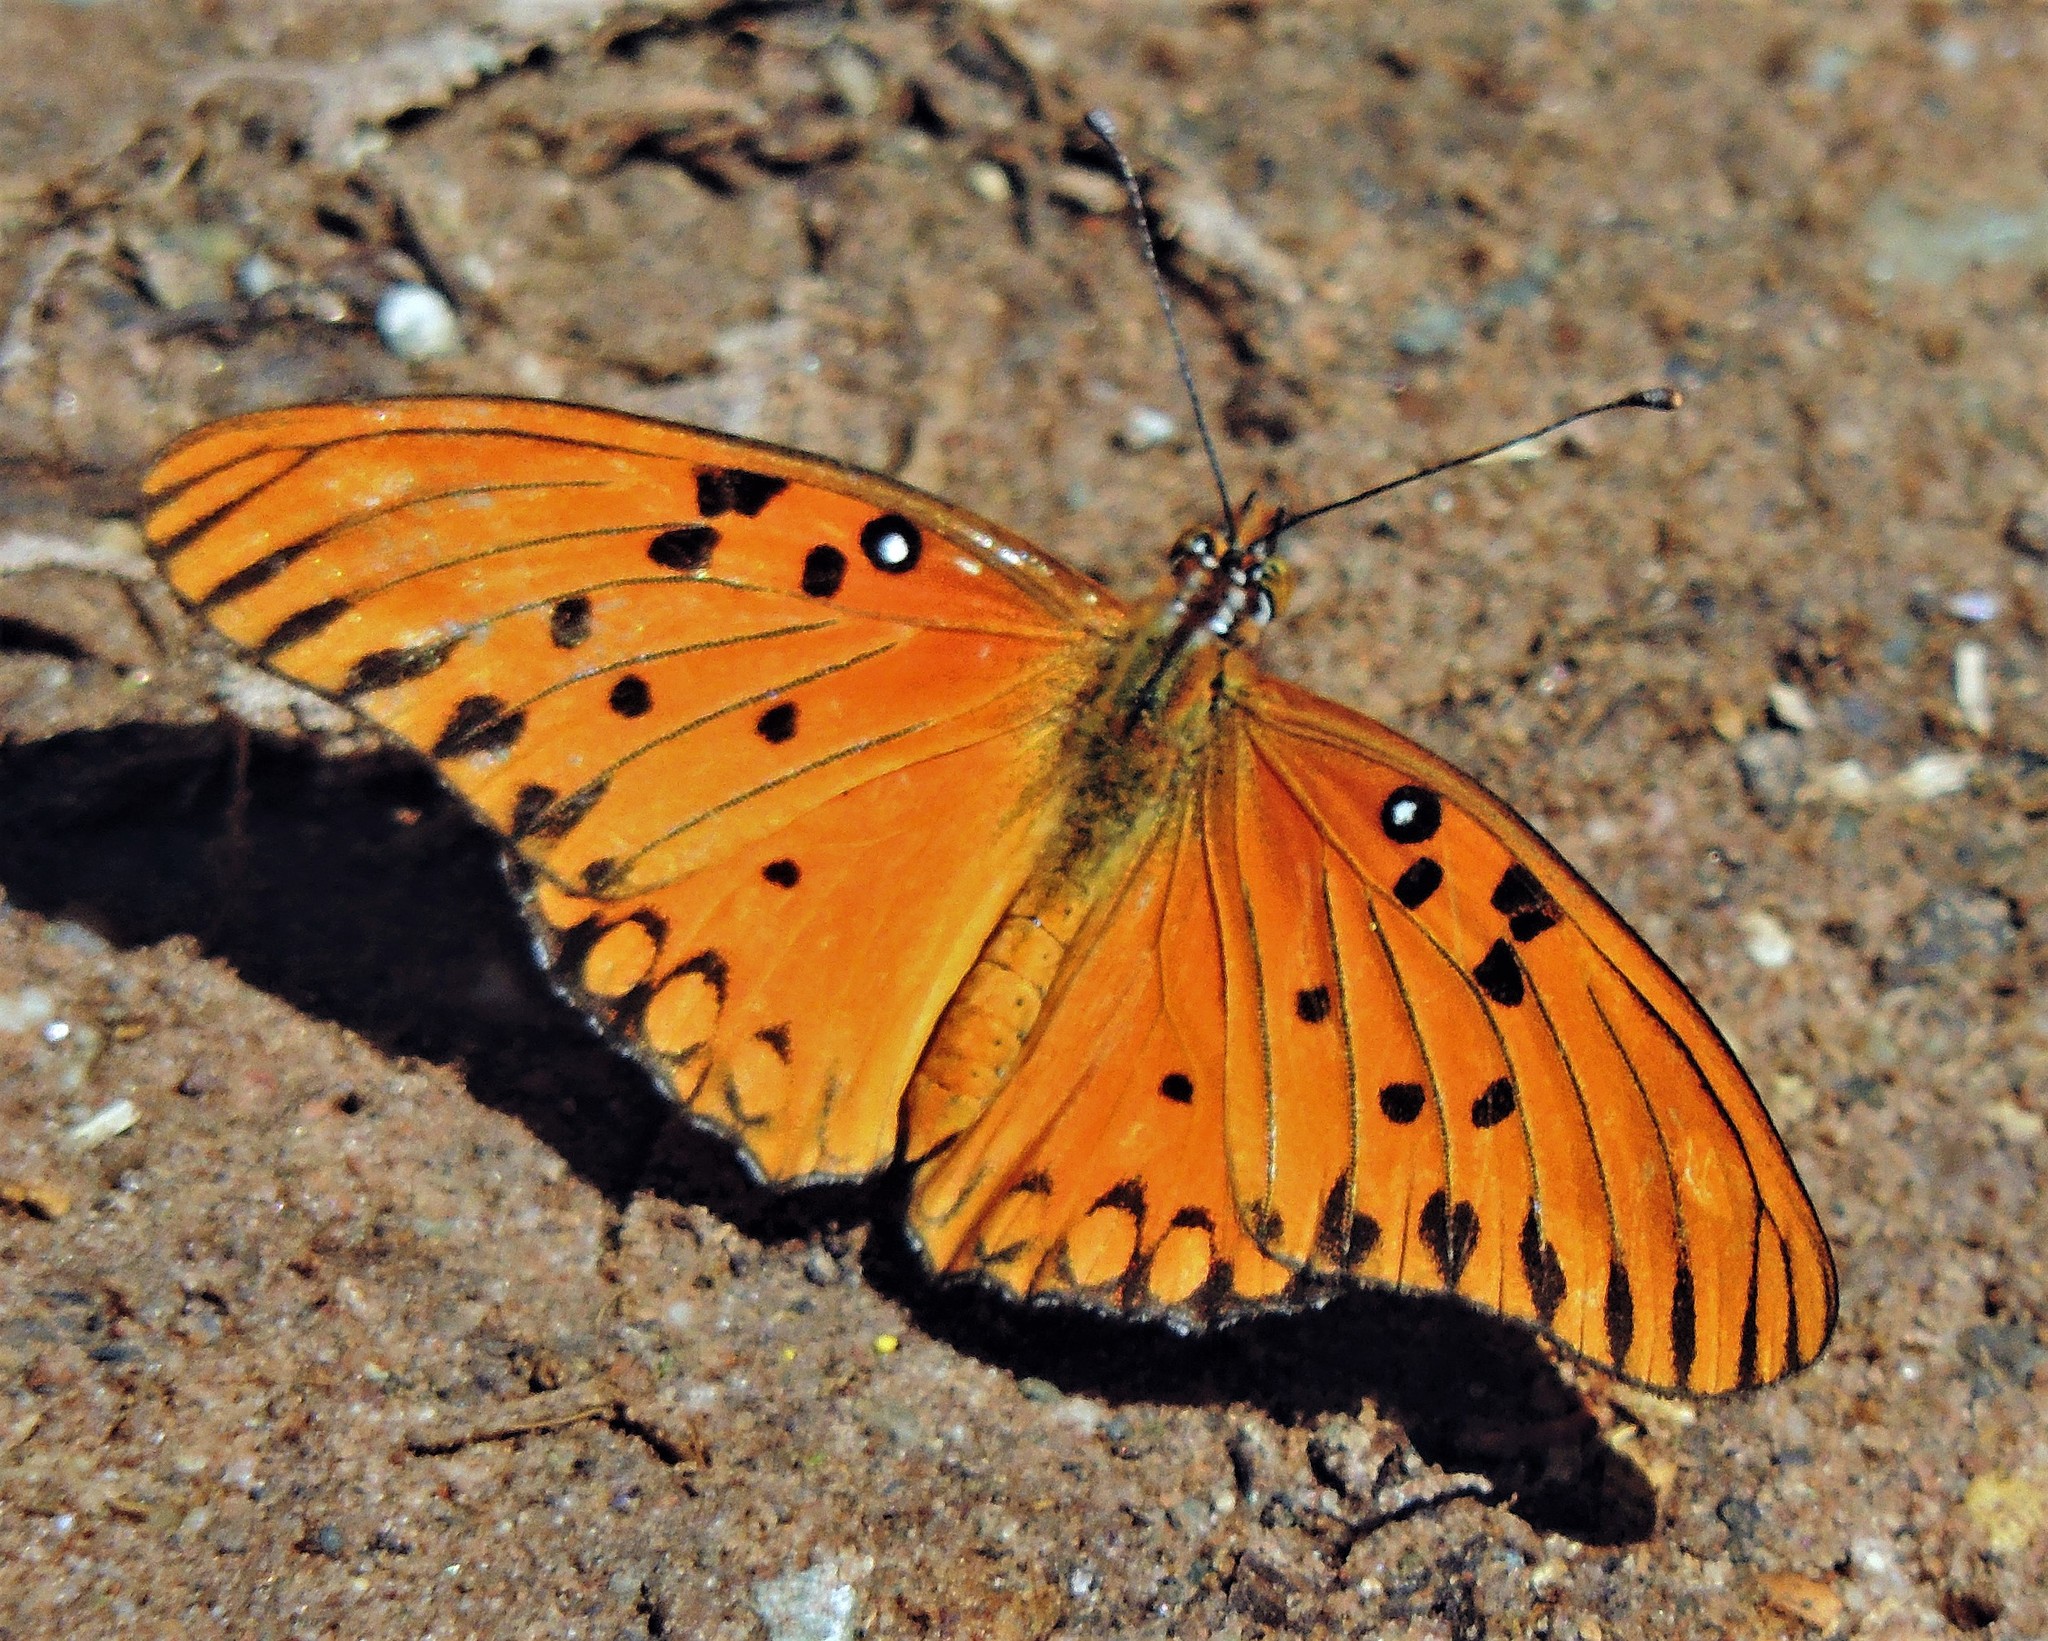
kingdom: Animalia
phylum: Arthropoda
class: Insecta
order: Lepidoptera
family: Nymphalidae
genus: Dione
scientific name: Dione vanillae
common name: Gulf fritillary
